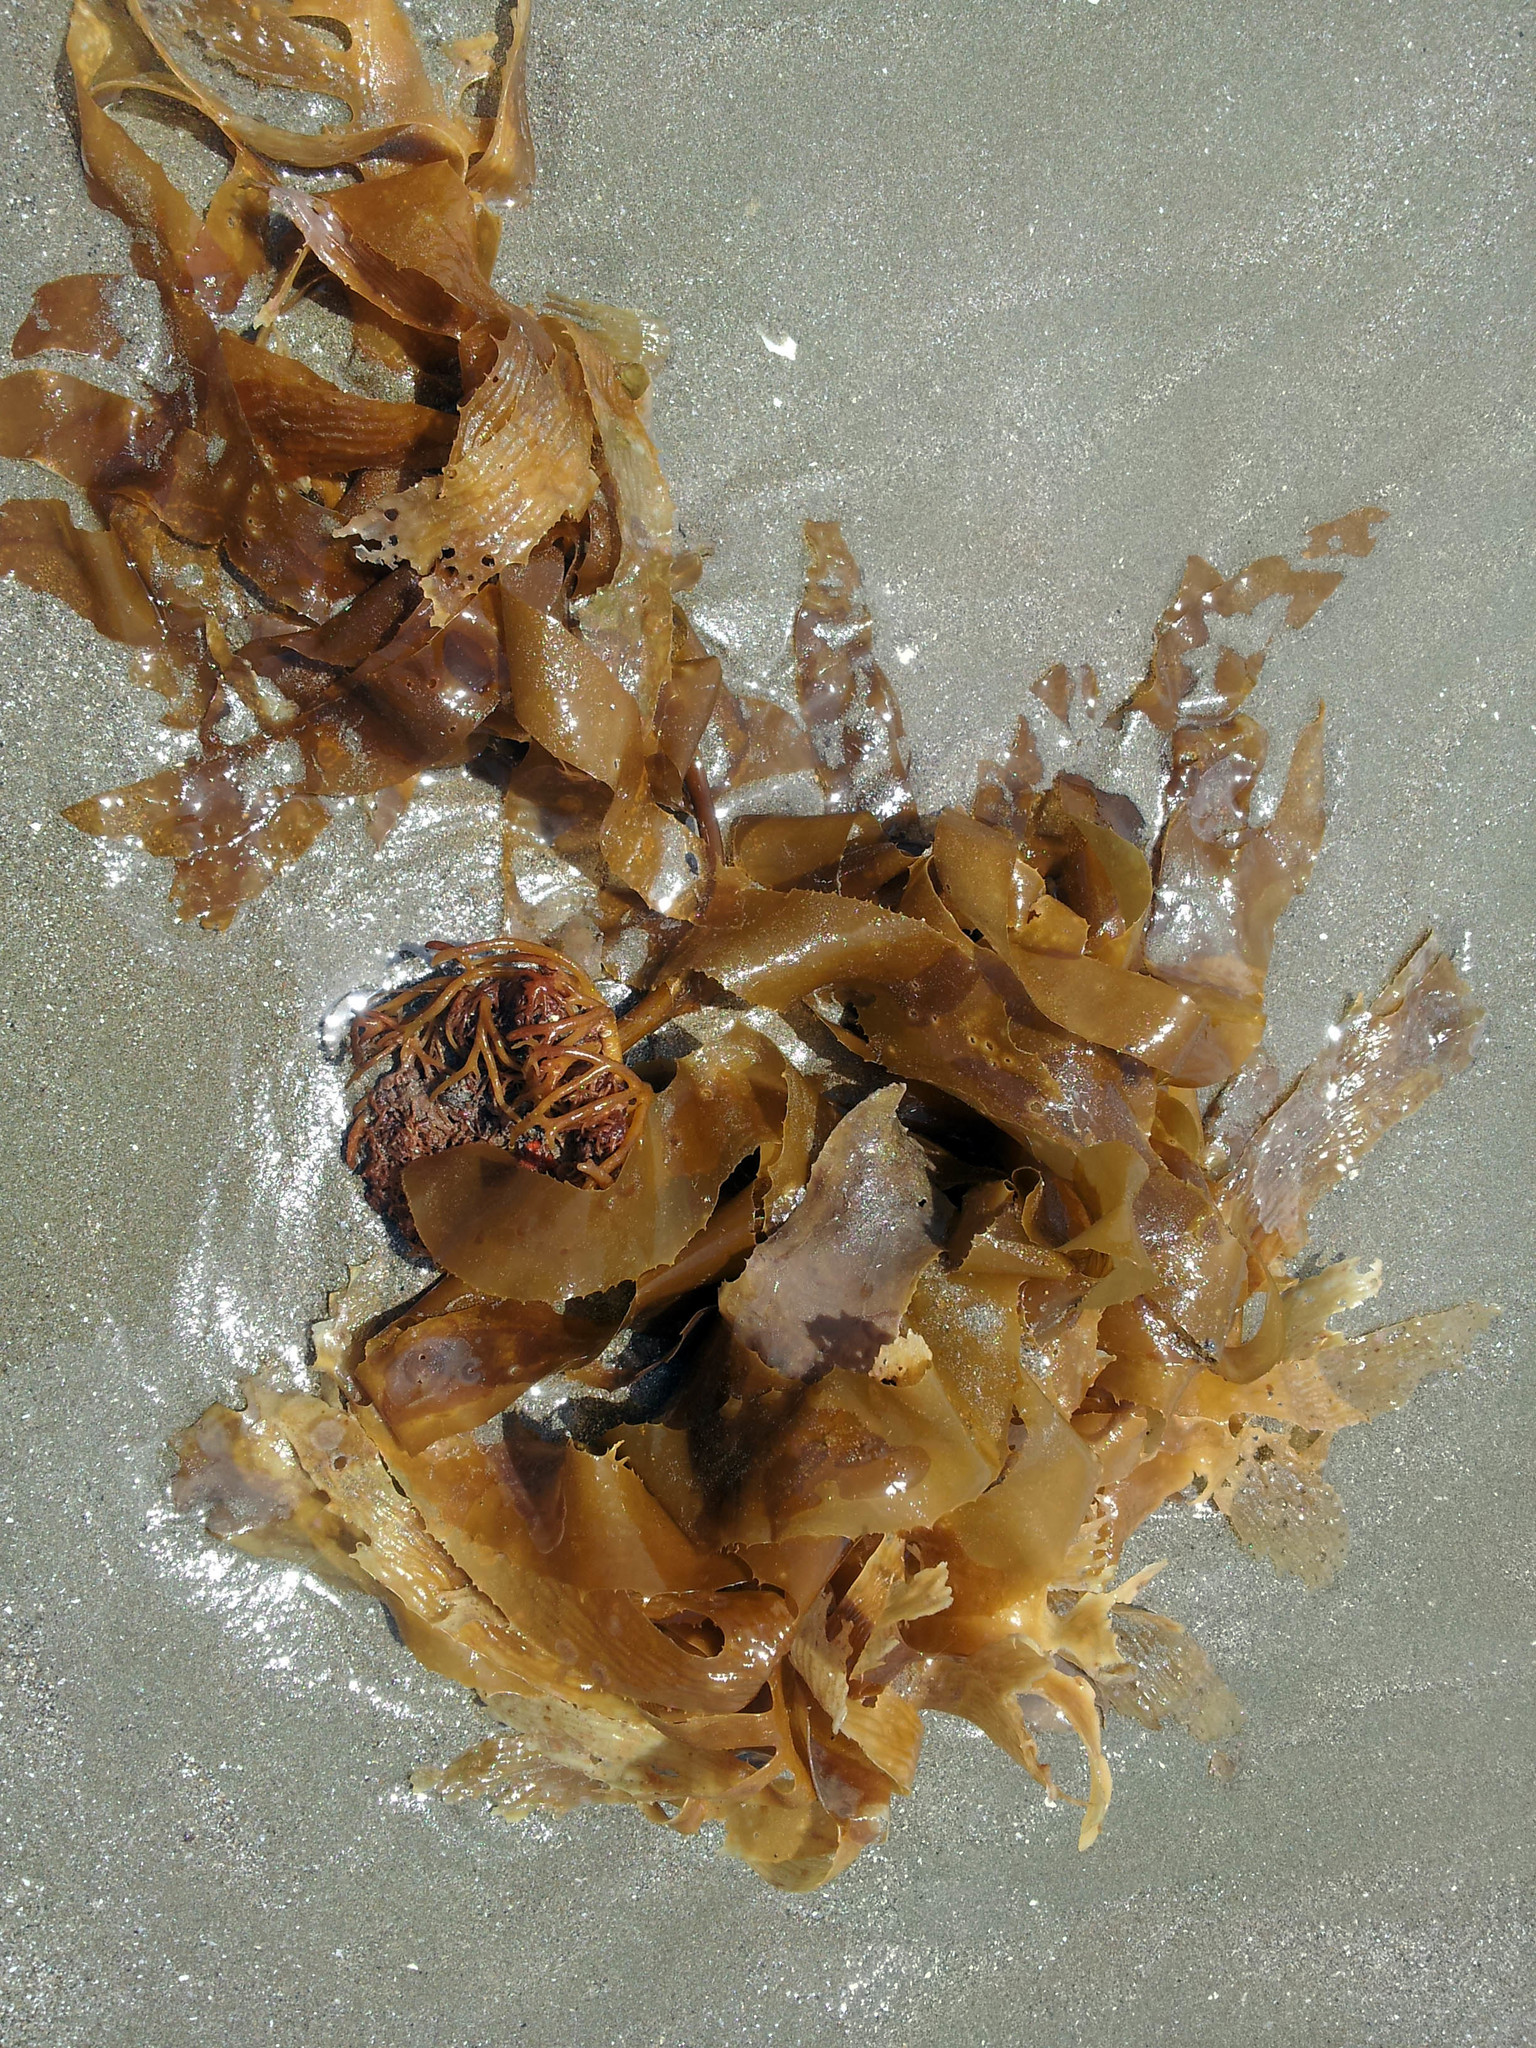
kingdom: Chromista
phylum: Ochrophyta
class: Phaeophyceae
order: Laminariales
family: Lessoniaceae
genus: Ecklonia
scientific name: Ecklonia radiata
